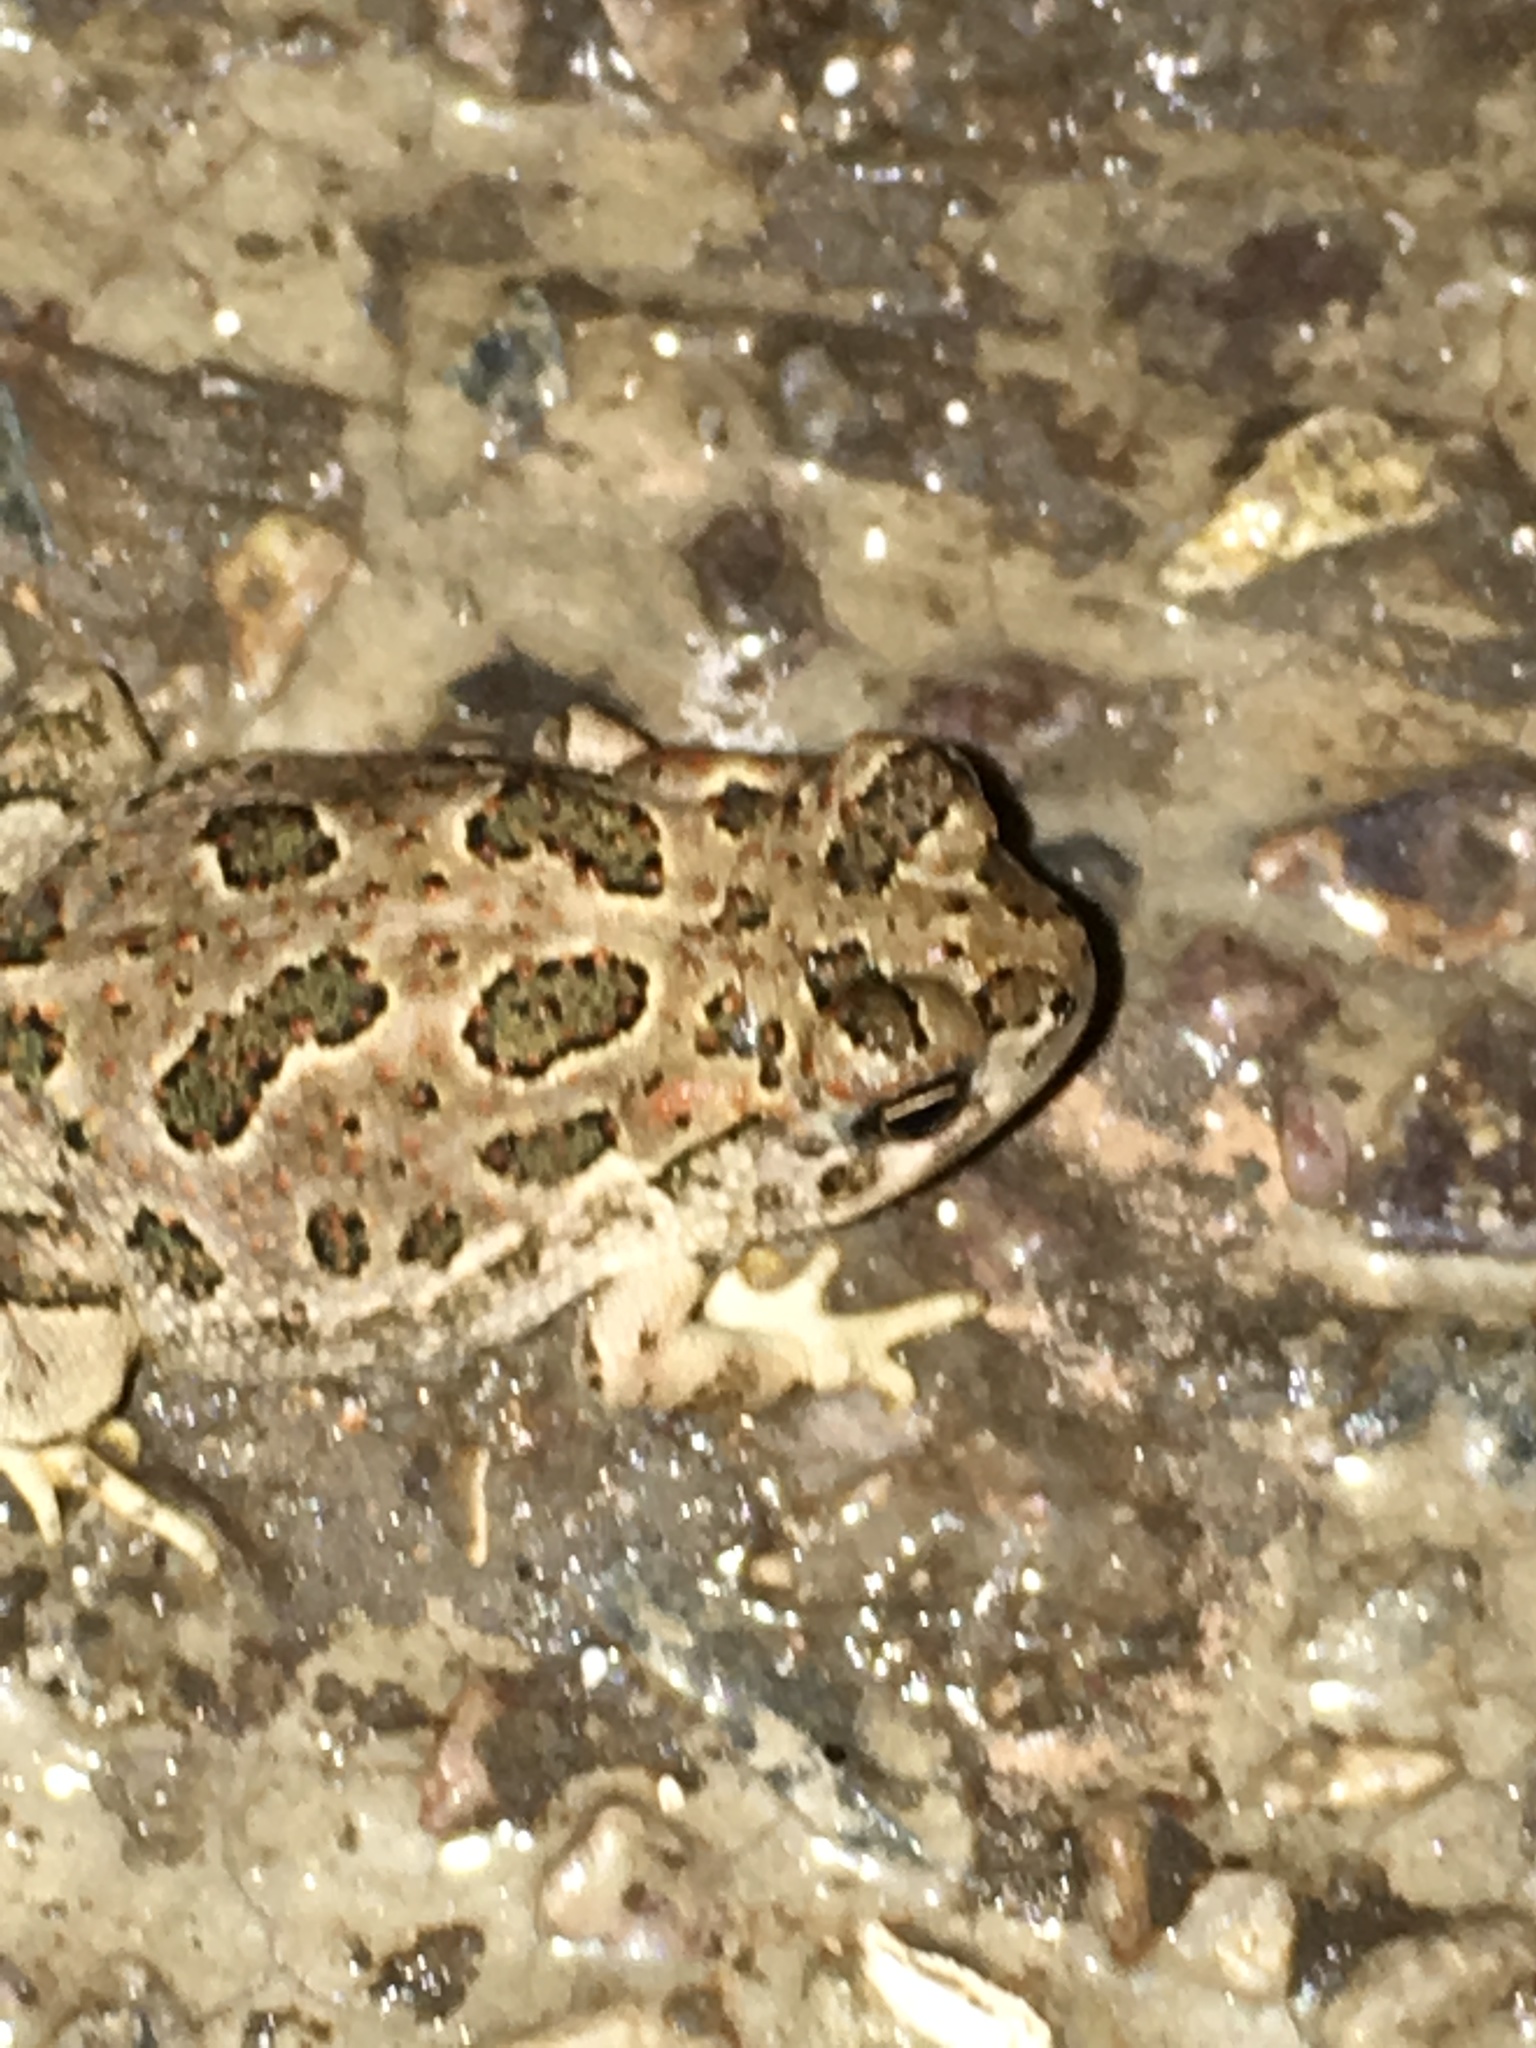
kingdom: Animalia
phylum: Chordata
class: Amphibia
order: Anura
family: Bufonidae
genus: Anaxyrus
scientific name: Anaxyrus cognatus
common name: Great plains toad
